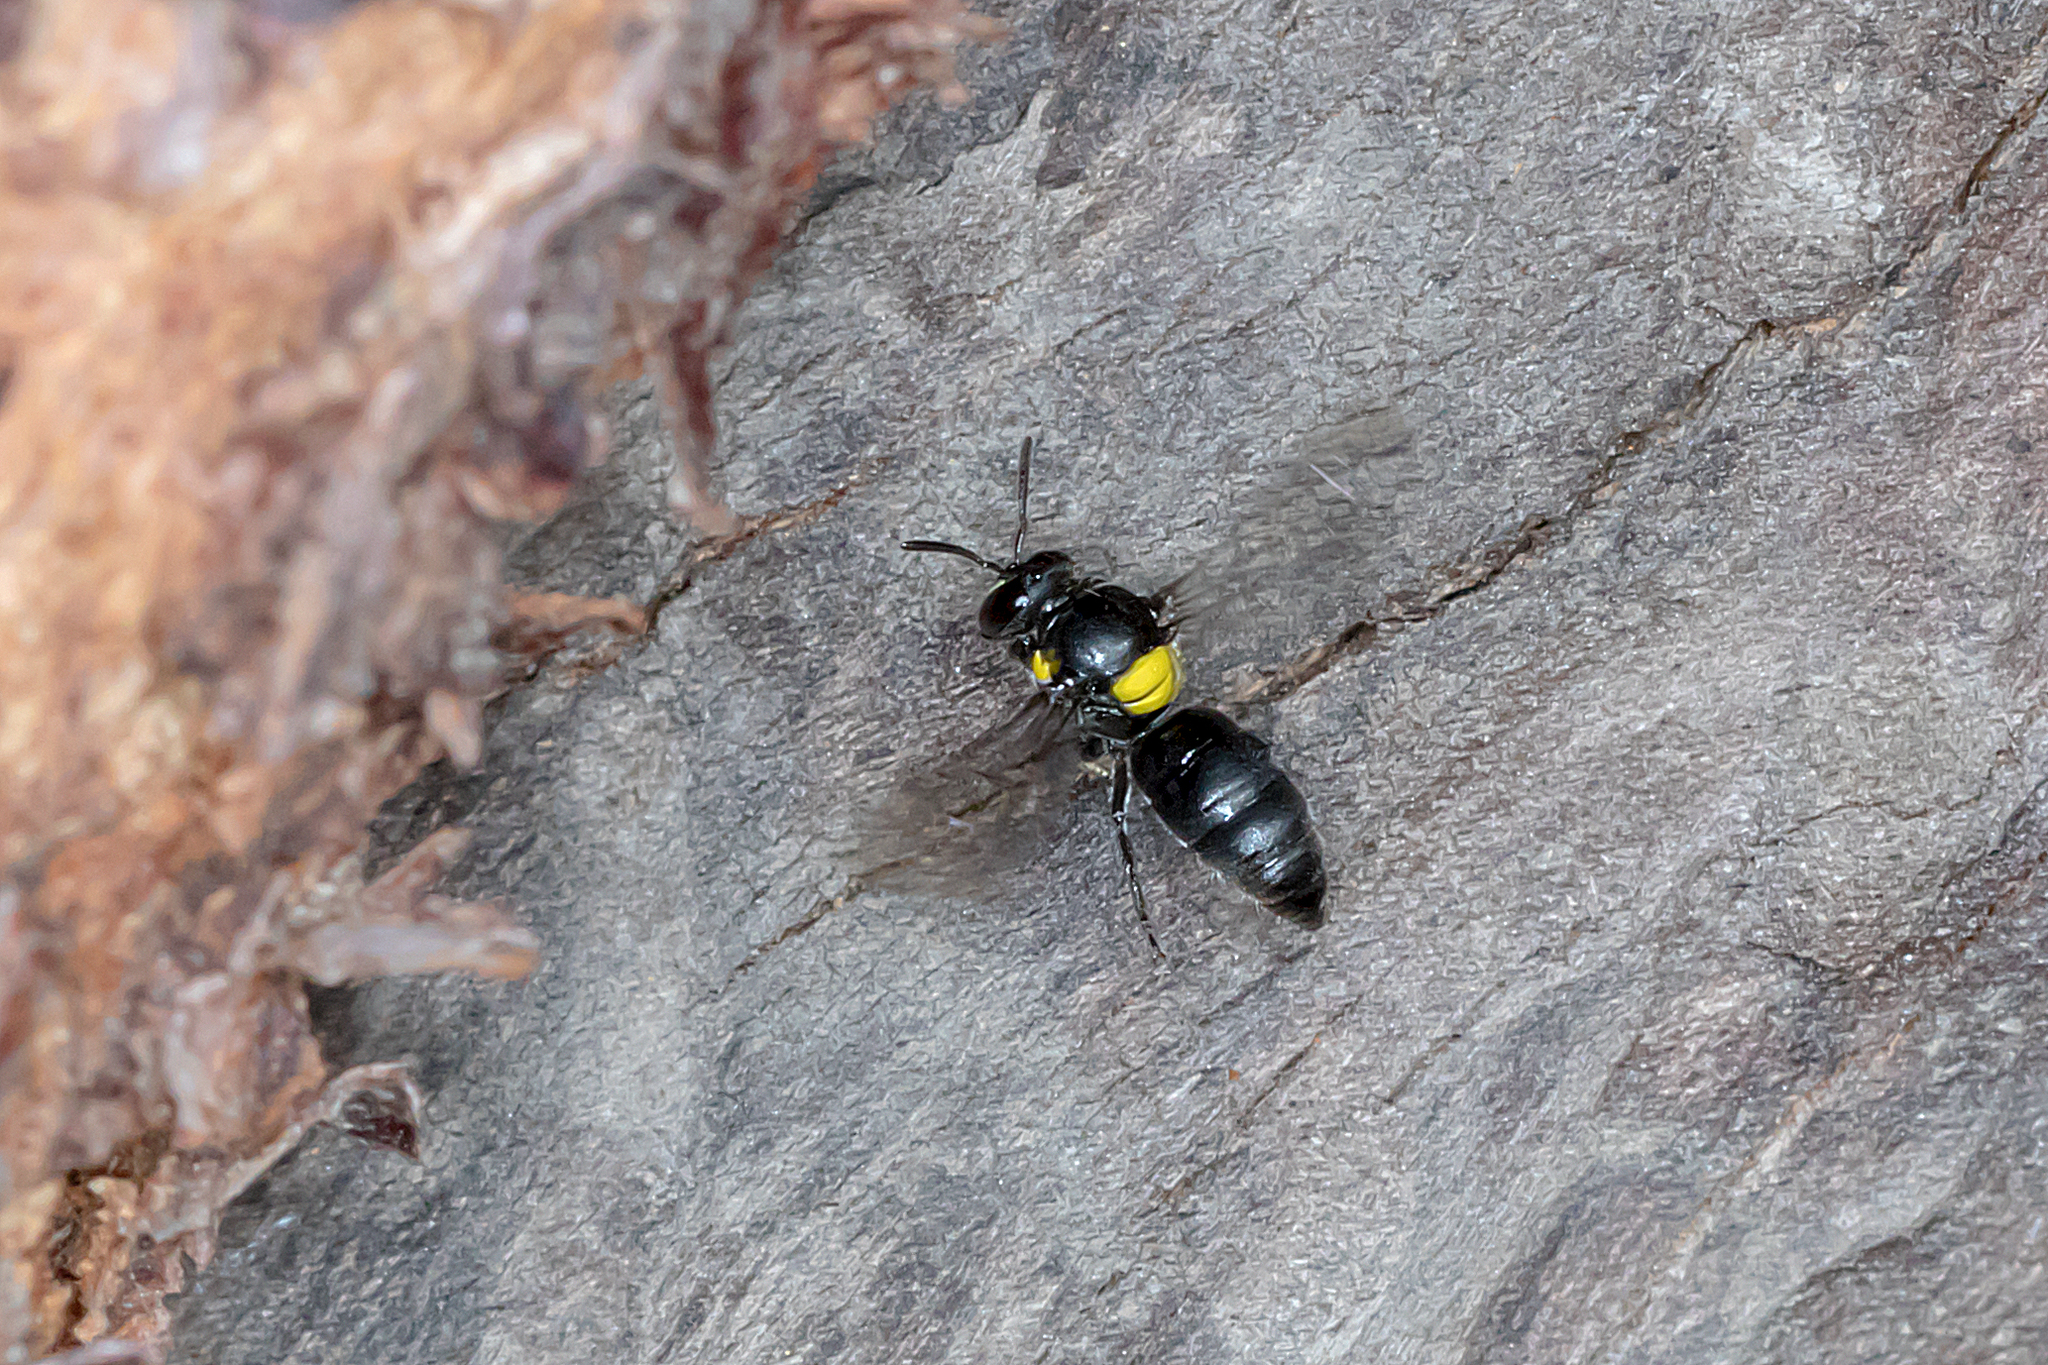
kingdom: Animalia
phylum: Arthropoda
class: Insecta
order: Hymenoptera
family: Colletidae
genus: Hylaeus
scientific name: Hylaeus nubilosus
